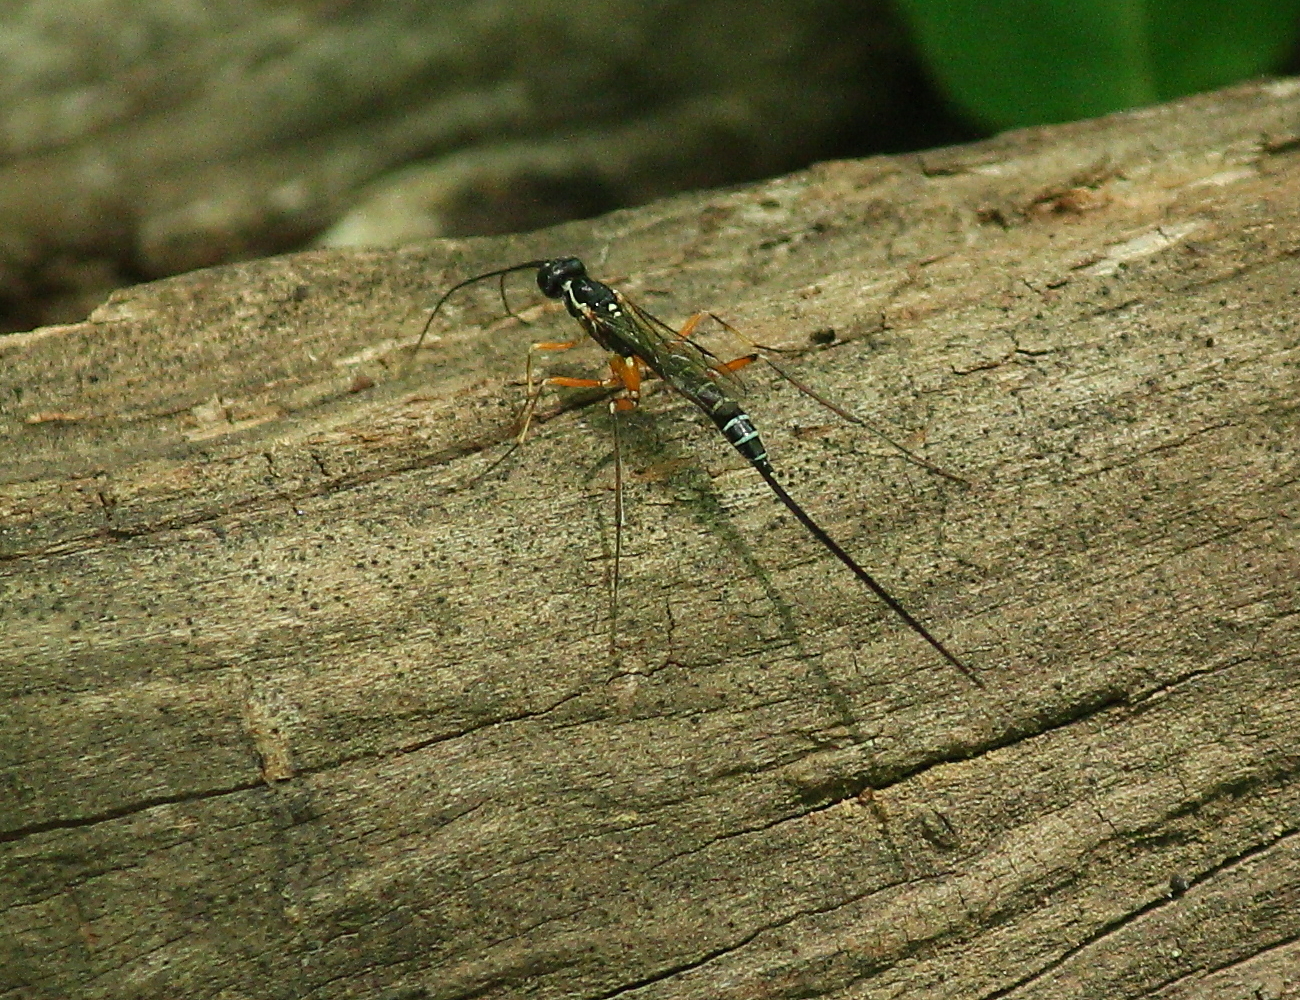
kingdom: Animalia
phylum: Arthropoda
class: Insecta
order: Hymenoptera
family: Ichneumonidae
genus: Podoschistus
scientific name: Podoschistus vittifrons
